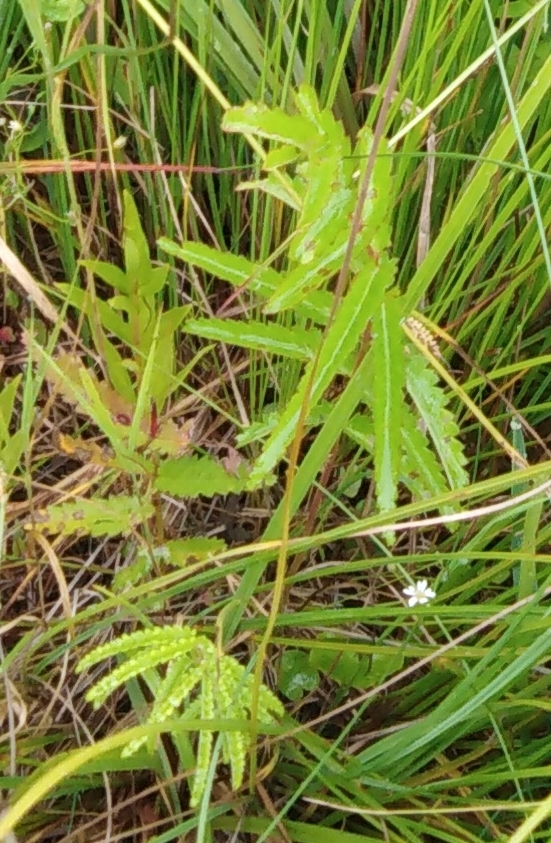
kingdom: Plantae
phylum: Tracheophyta
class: Magnoliopsida
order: Rosales
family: Rosaceae
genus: Poterium
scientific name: Poterium tenuifolium
